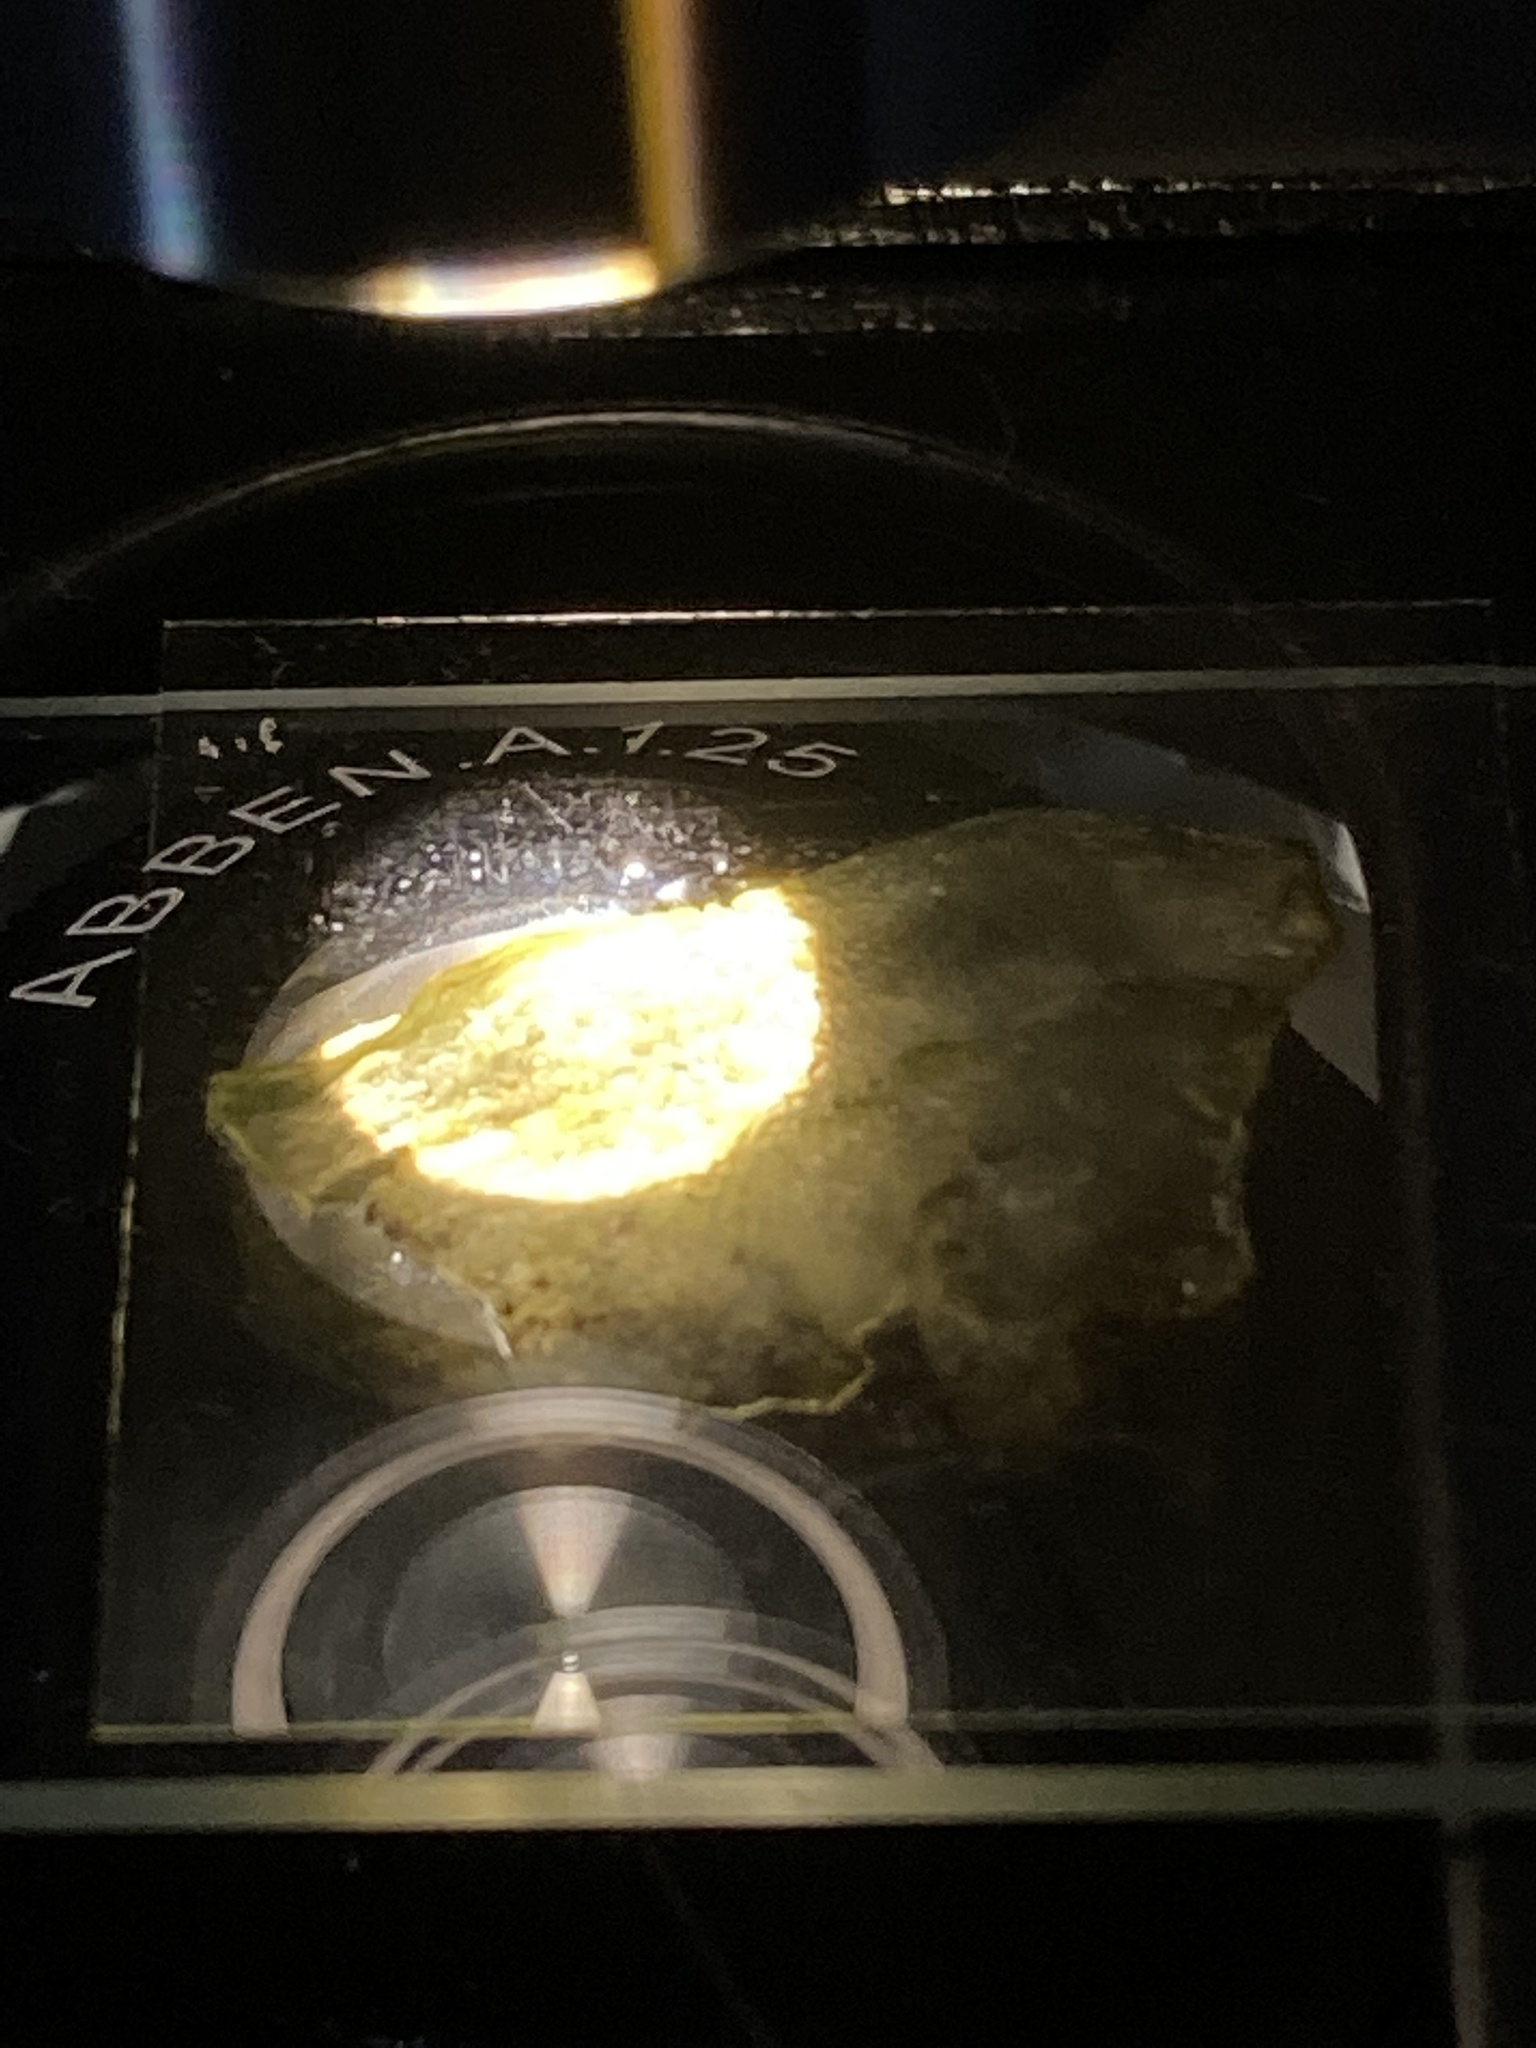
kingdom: Bacteria
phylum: Cyanobacteria
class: Cyanobacteriia
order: Cyanobacteriales
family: Nostocaceae
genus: Nostoc
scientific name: Nostoc commune
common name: Star jelly
